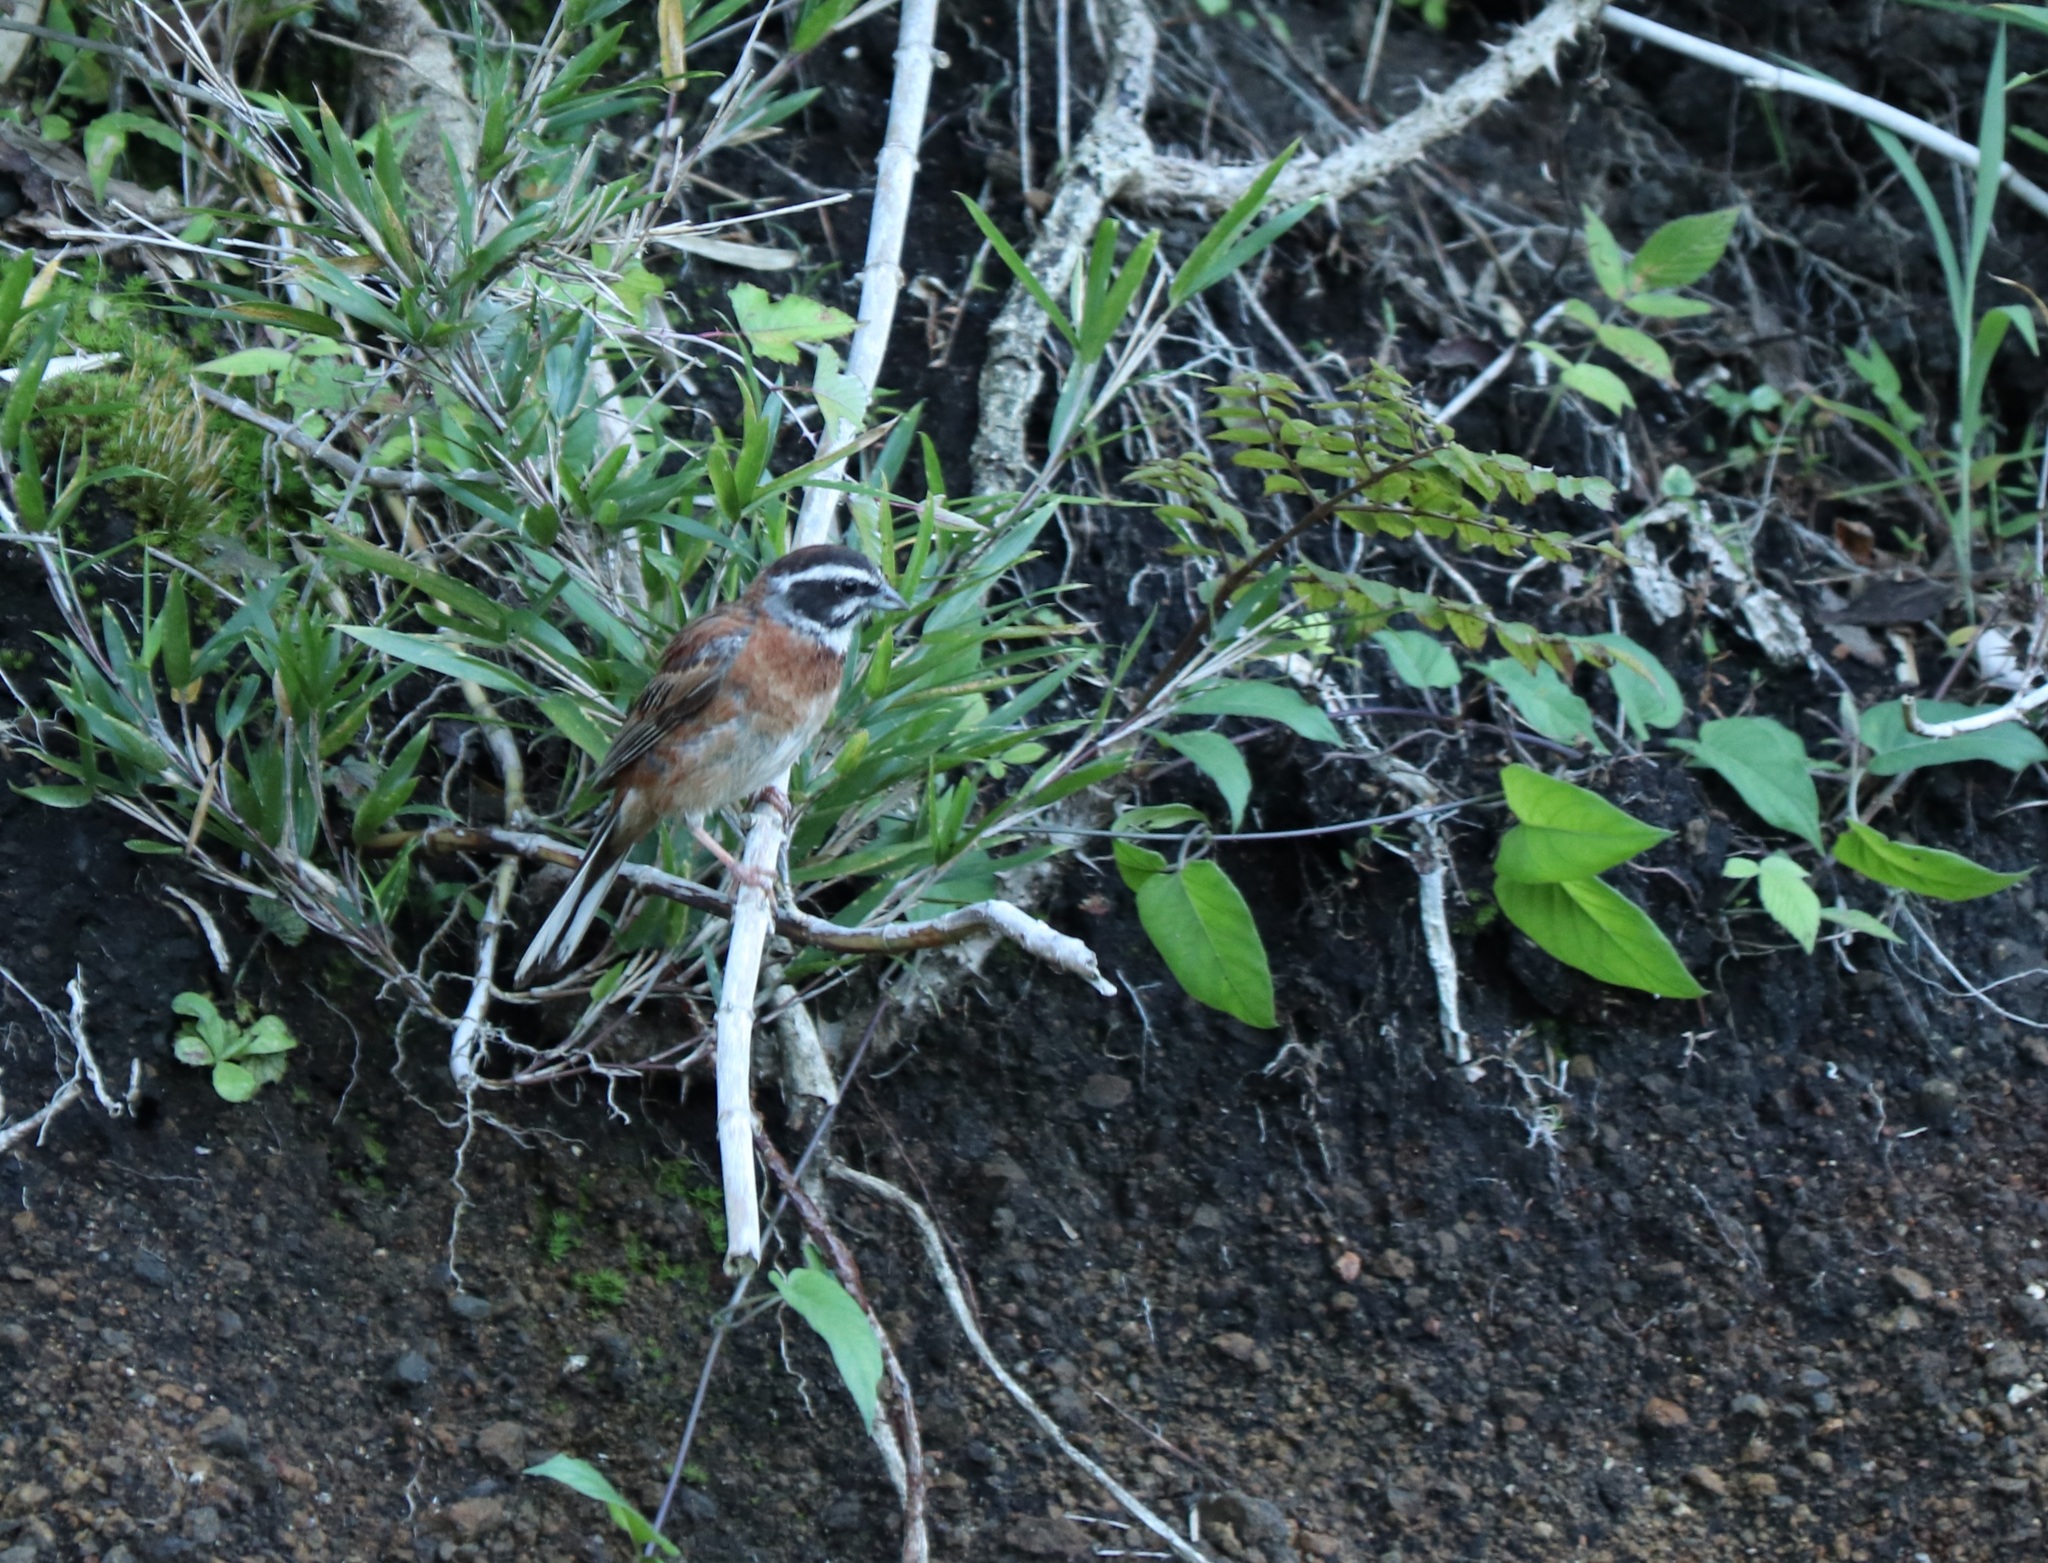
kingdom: Animalia
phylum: Chordata
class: Aves
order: Passeriformes
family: Emberizidae
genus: Emberiza
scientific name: Emberiza cioides
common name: Meadow bunting
